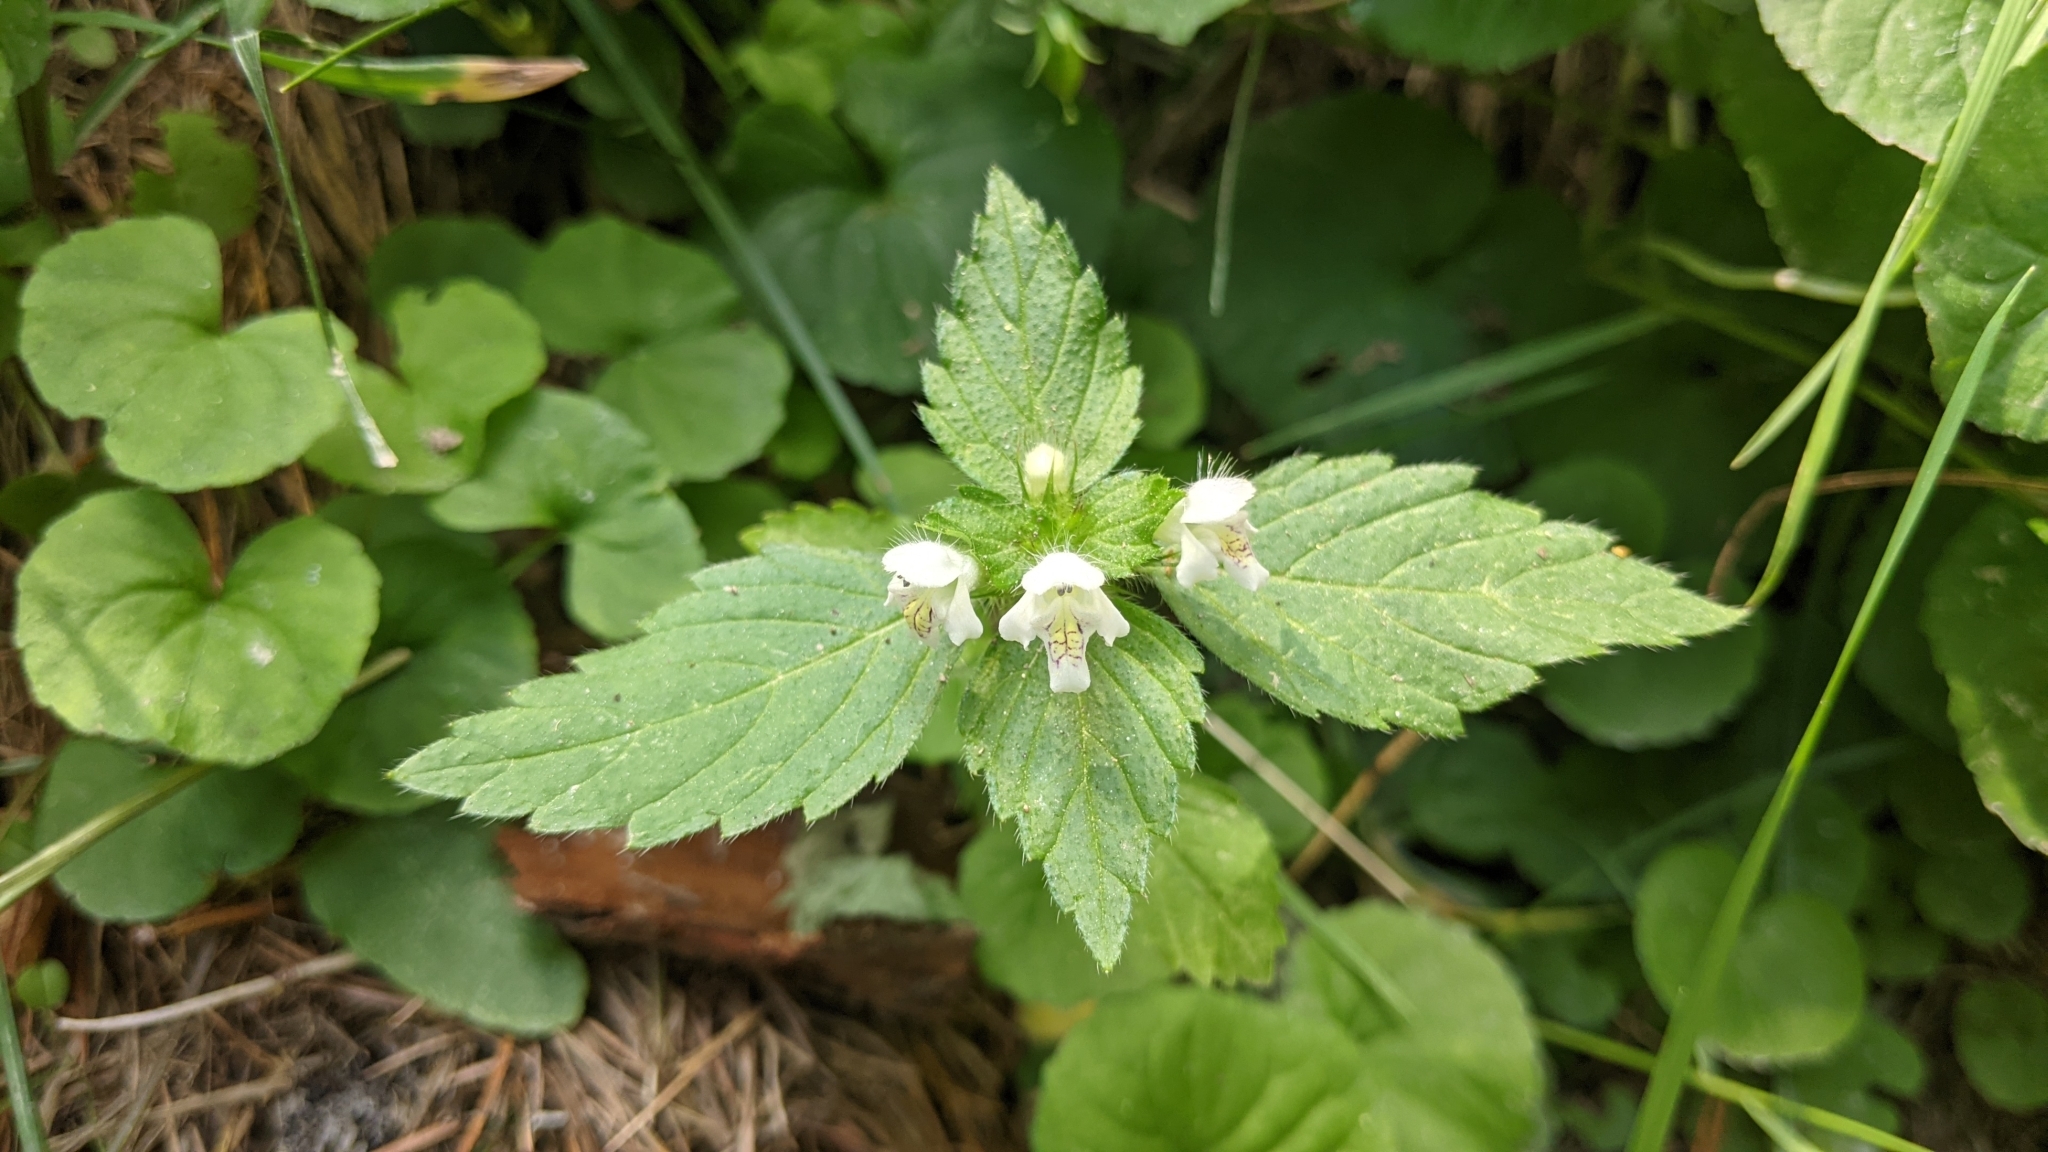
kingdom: Plantae
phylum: Tracheophyta
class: Magnoliopsida
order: Lamiales
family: Lamiaceae
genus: Galeopsis
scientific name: Galeopsis tetrahit
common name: Common hemp-nettle
